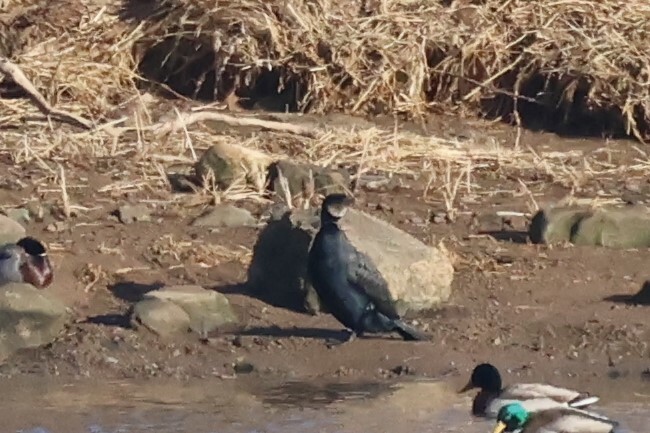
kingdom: Animalia
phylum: Chordata
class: Aves
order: Suliformes
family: Phalacrocoracidae
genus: Phalacrocorax
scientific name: Phalacrocorax carbo
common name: Great cormorant
